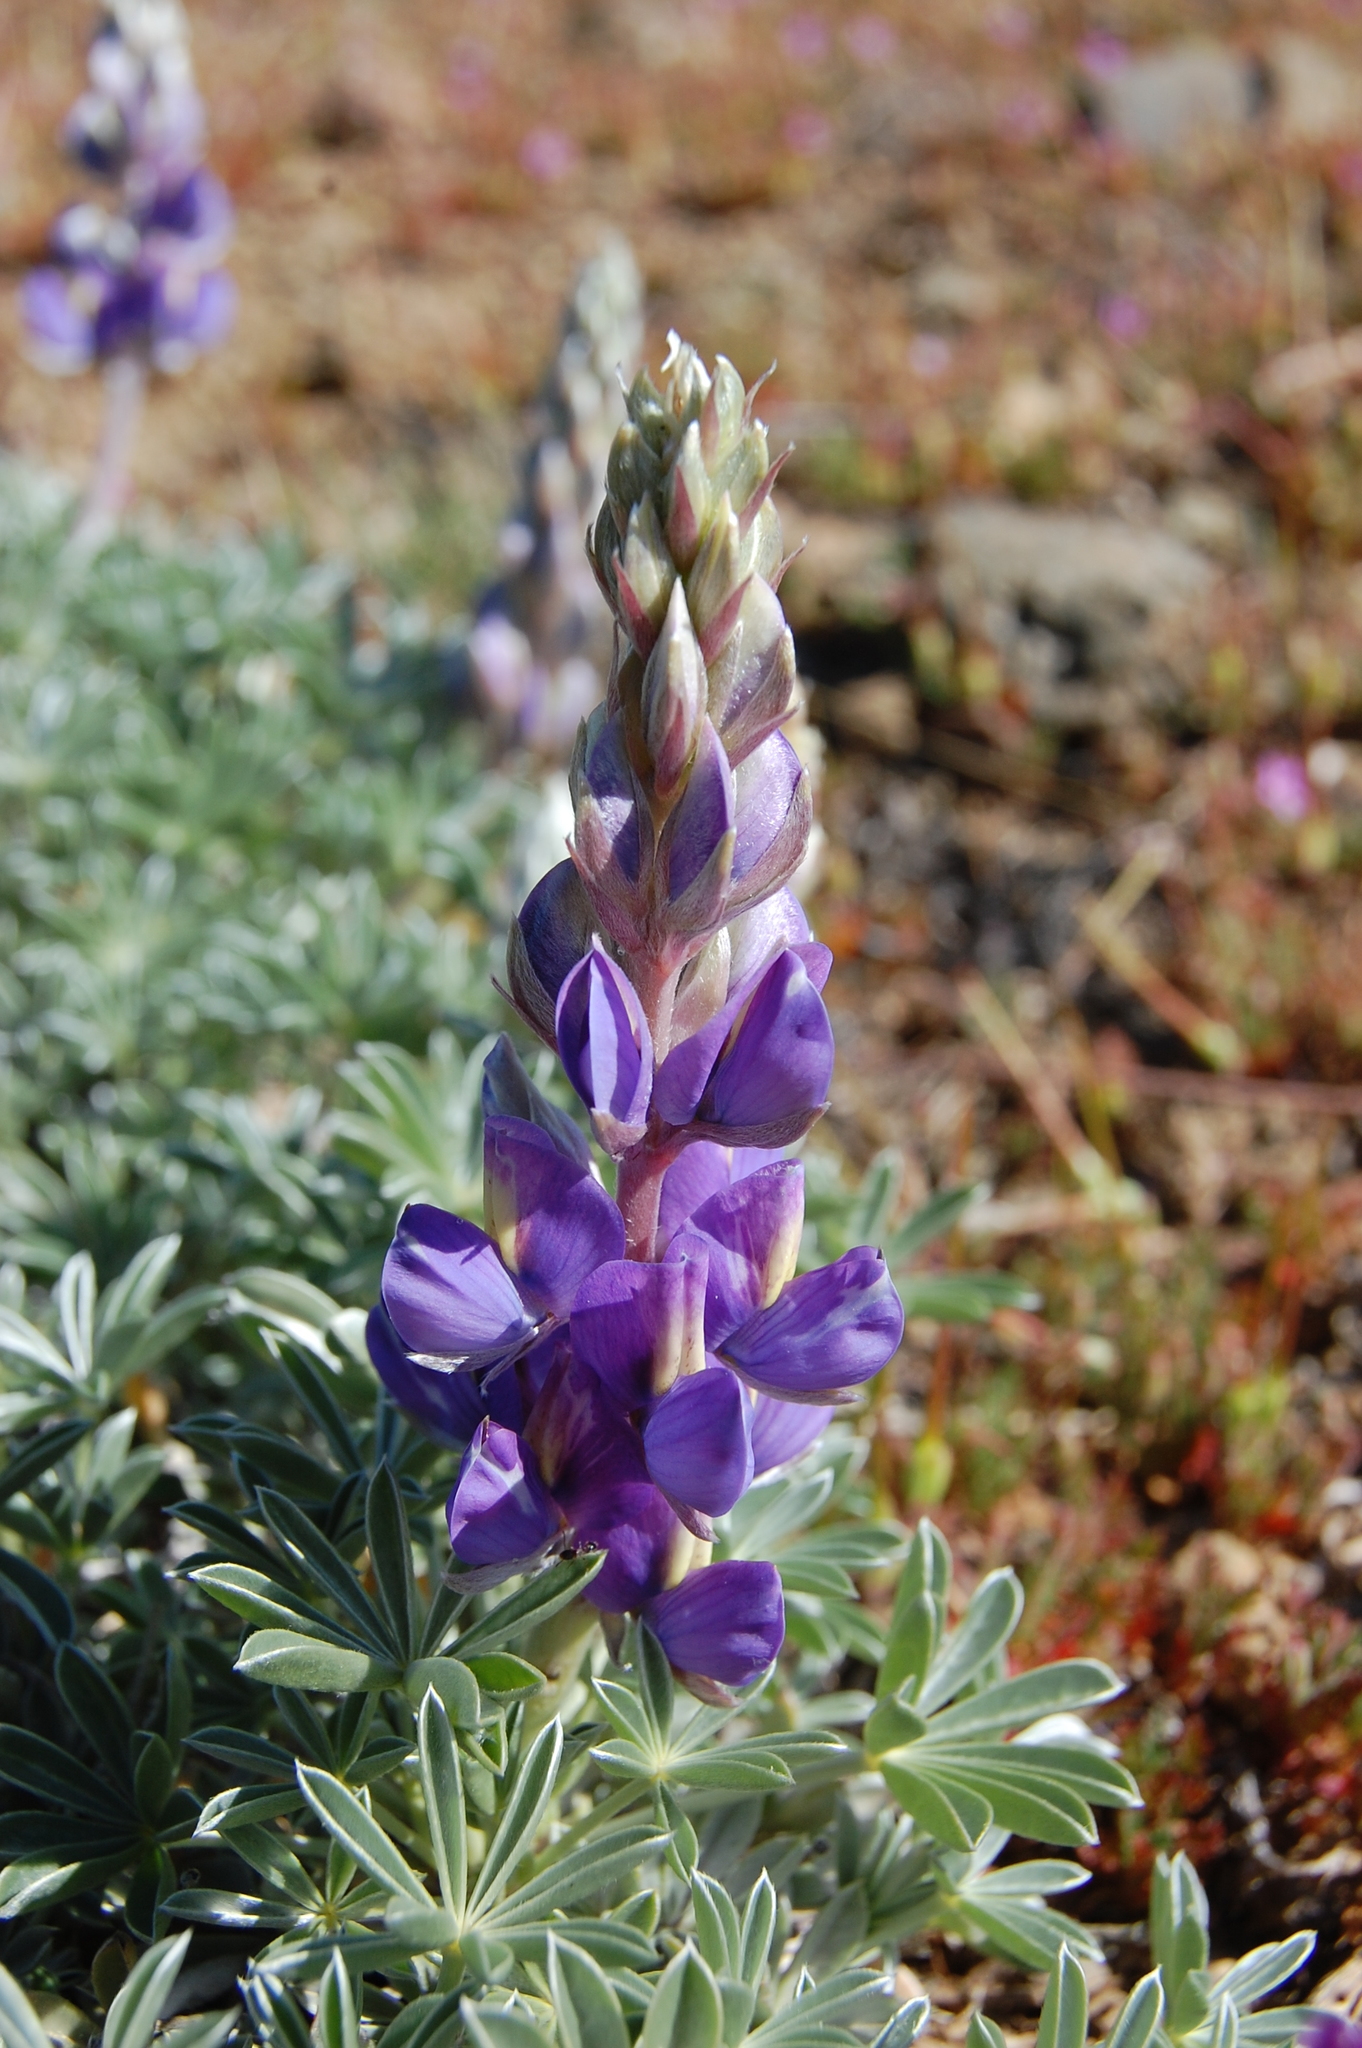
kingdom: Plantae
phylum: Tracheophyta
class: Magnoliopsida
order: Fabales
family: Fabaceae
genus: Lupinus
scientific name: Lupinus albifrons
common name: Foothill lupine
